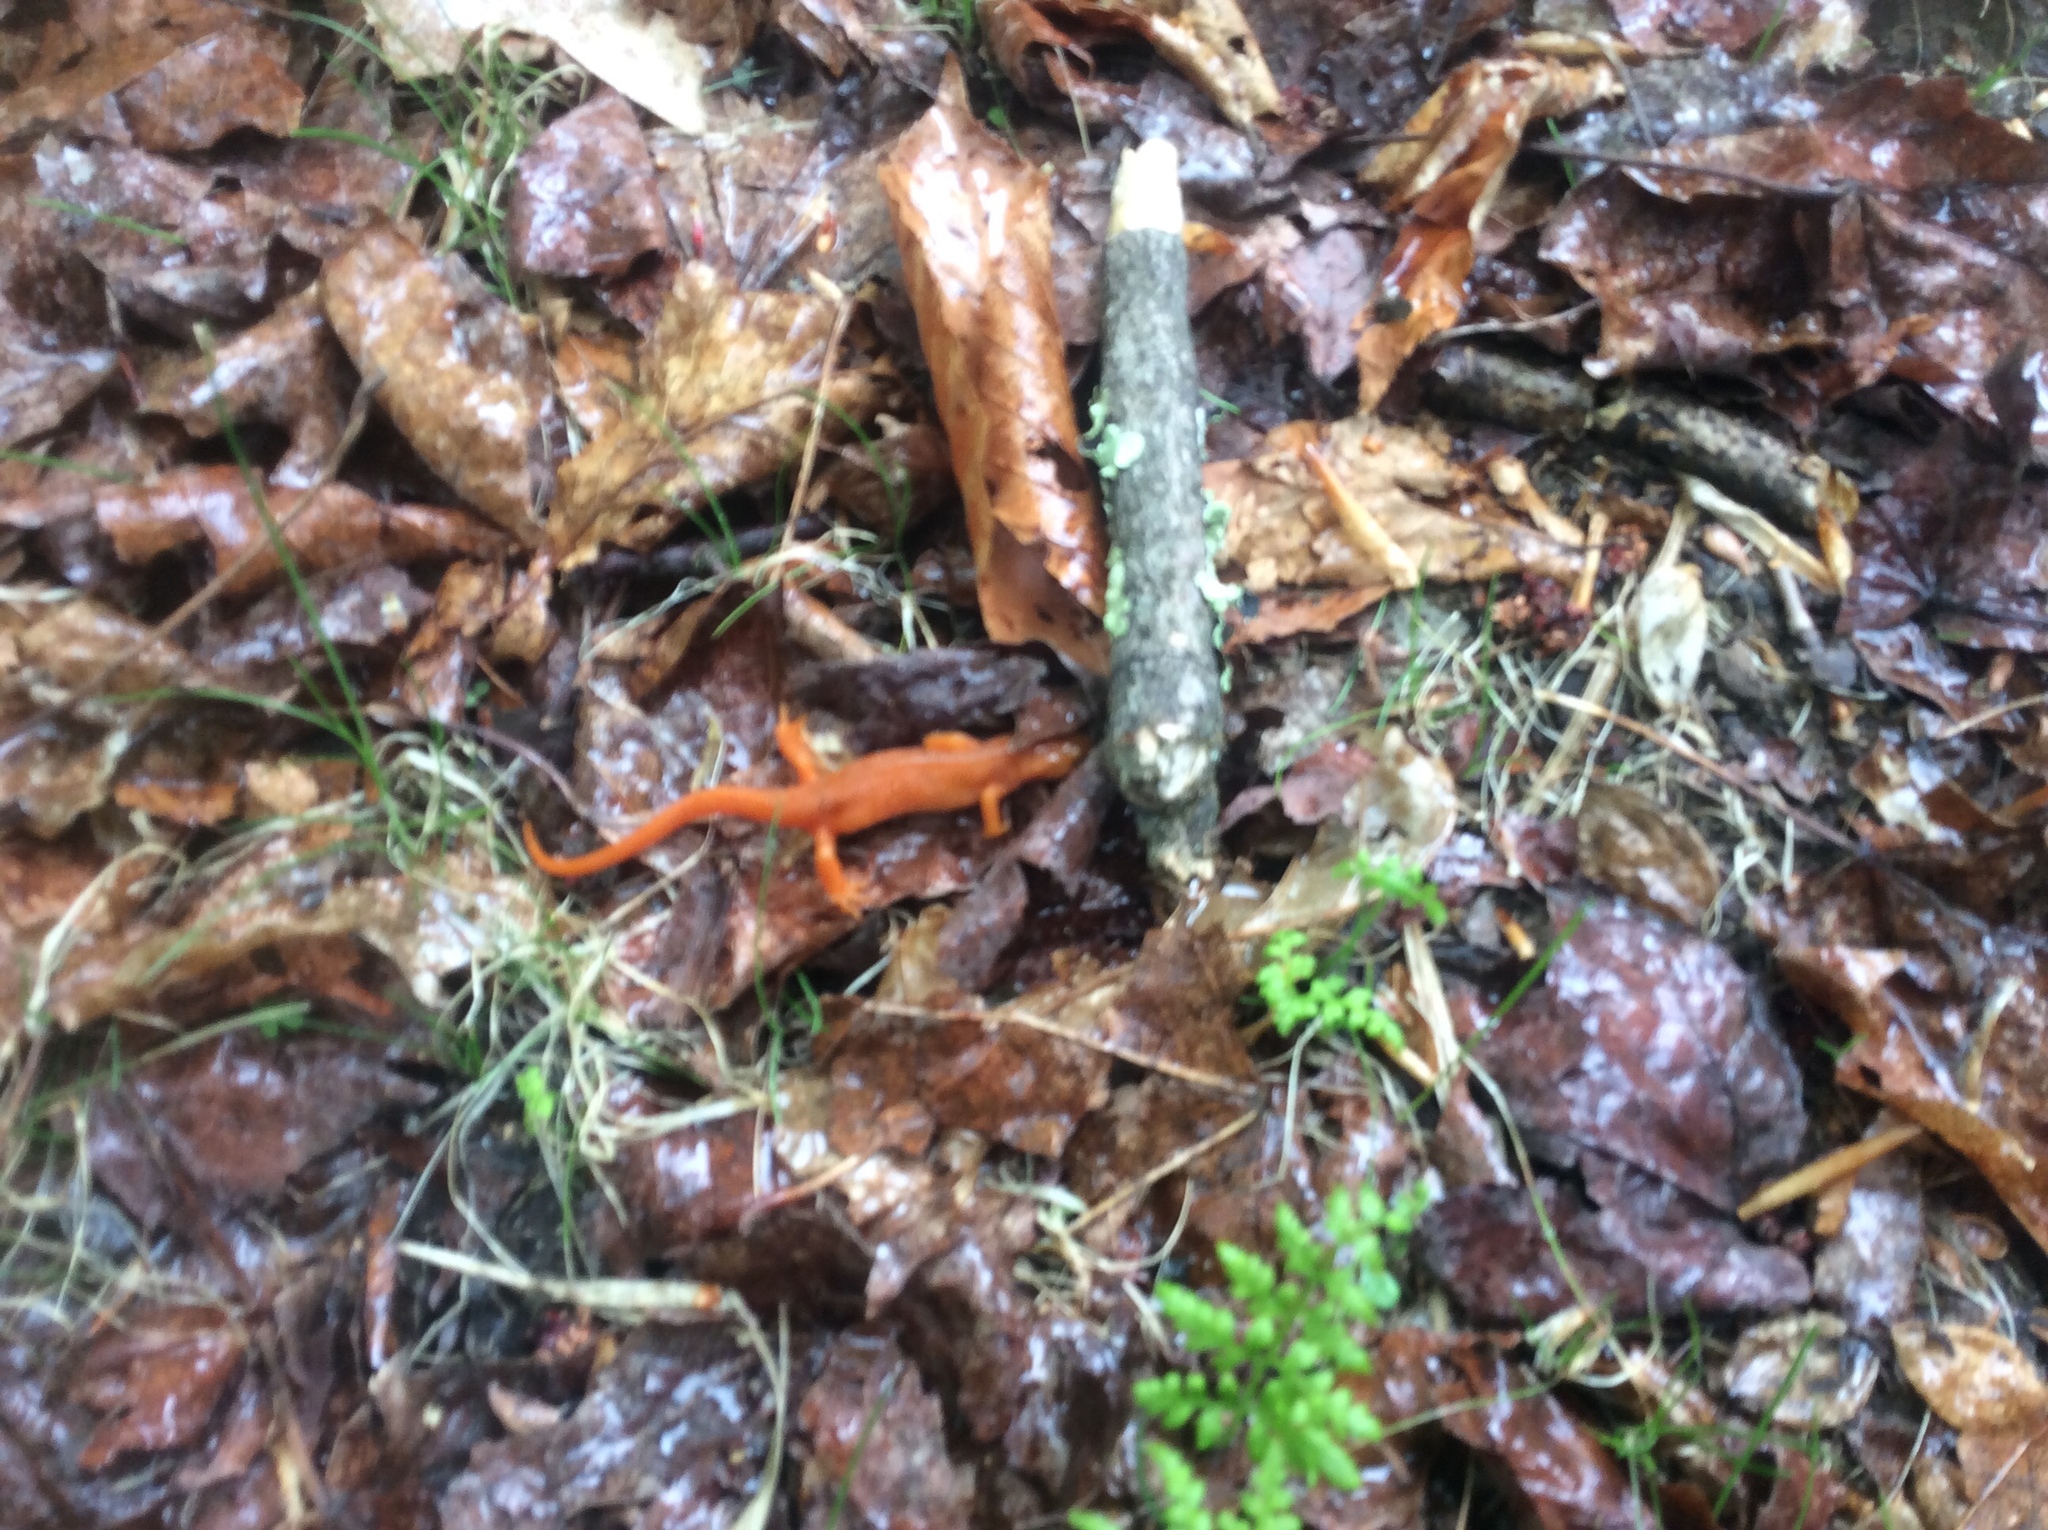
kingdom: Animalia
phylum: Chordata
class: Amphibia
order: Caudata
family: Salamandridae
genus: Notophthalmus
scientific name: Notophthalmus viridescens
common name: Eastern newt
